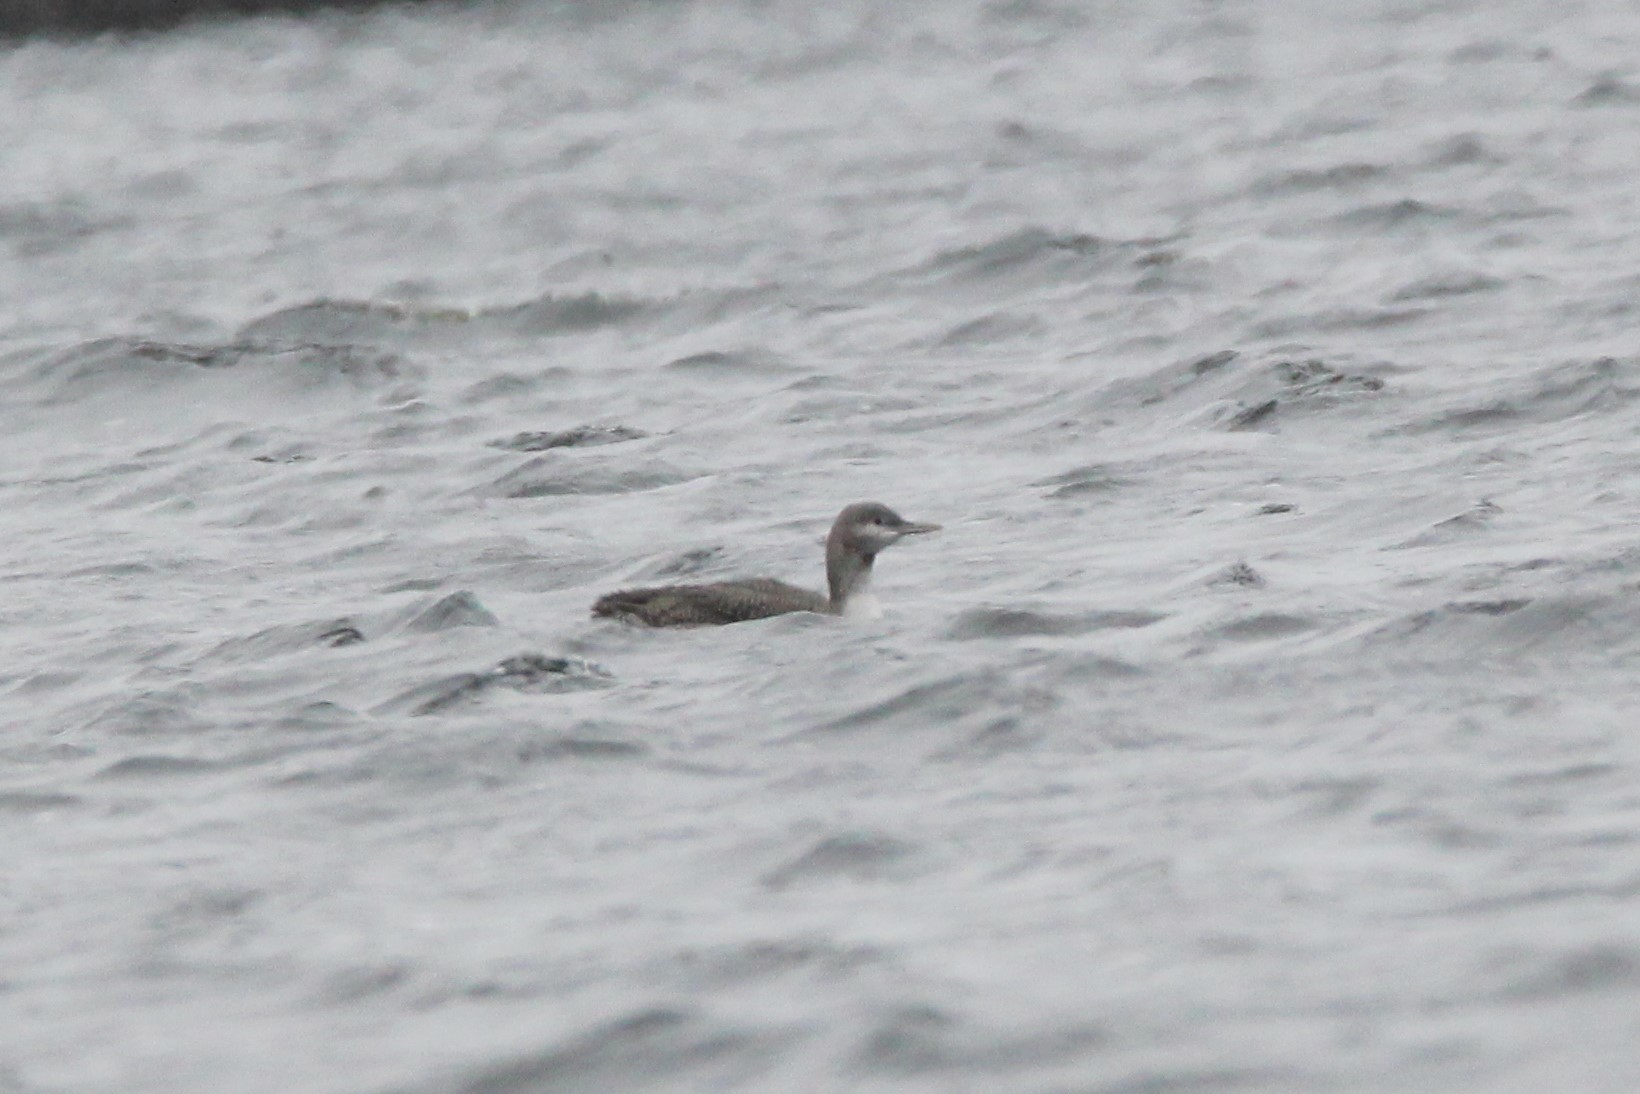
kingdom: Animalia
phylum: Chordata
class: Aves
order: Gaviiformes
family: Gaviidae
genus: Gavia
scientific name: Gavia stellata
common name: Red-throated loon
